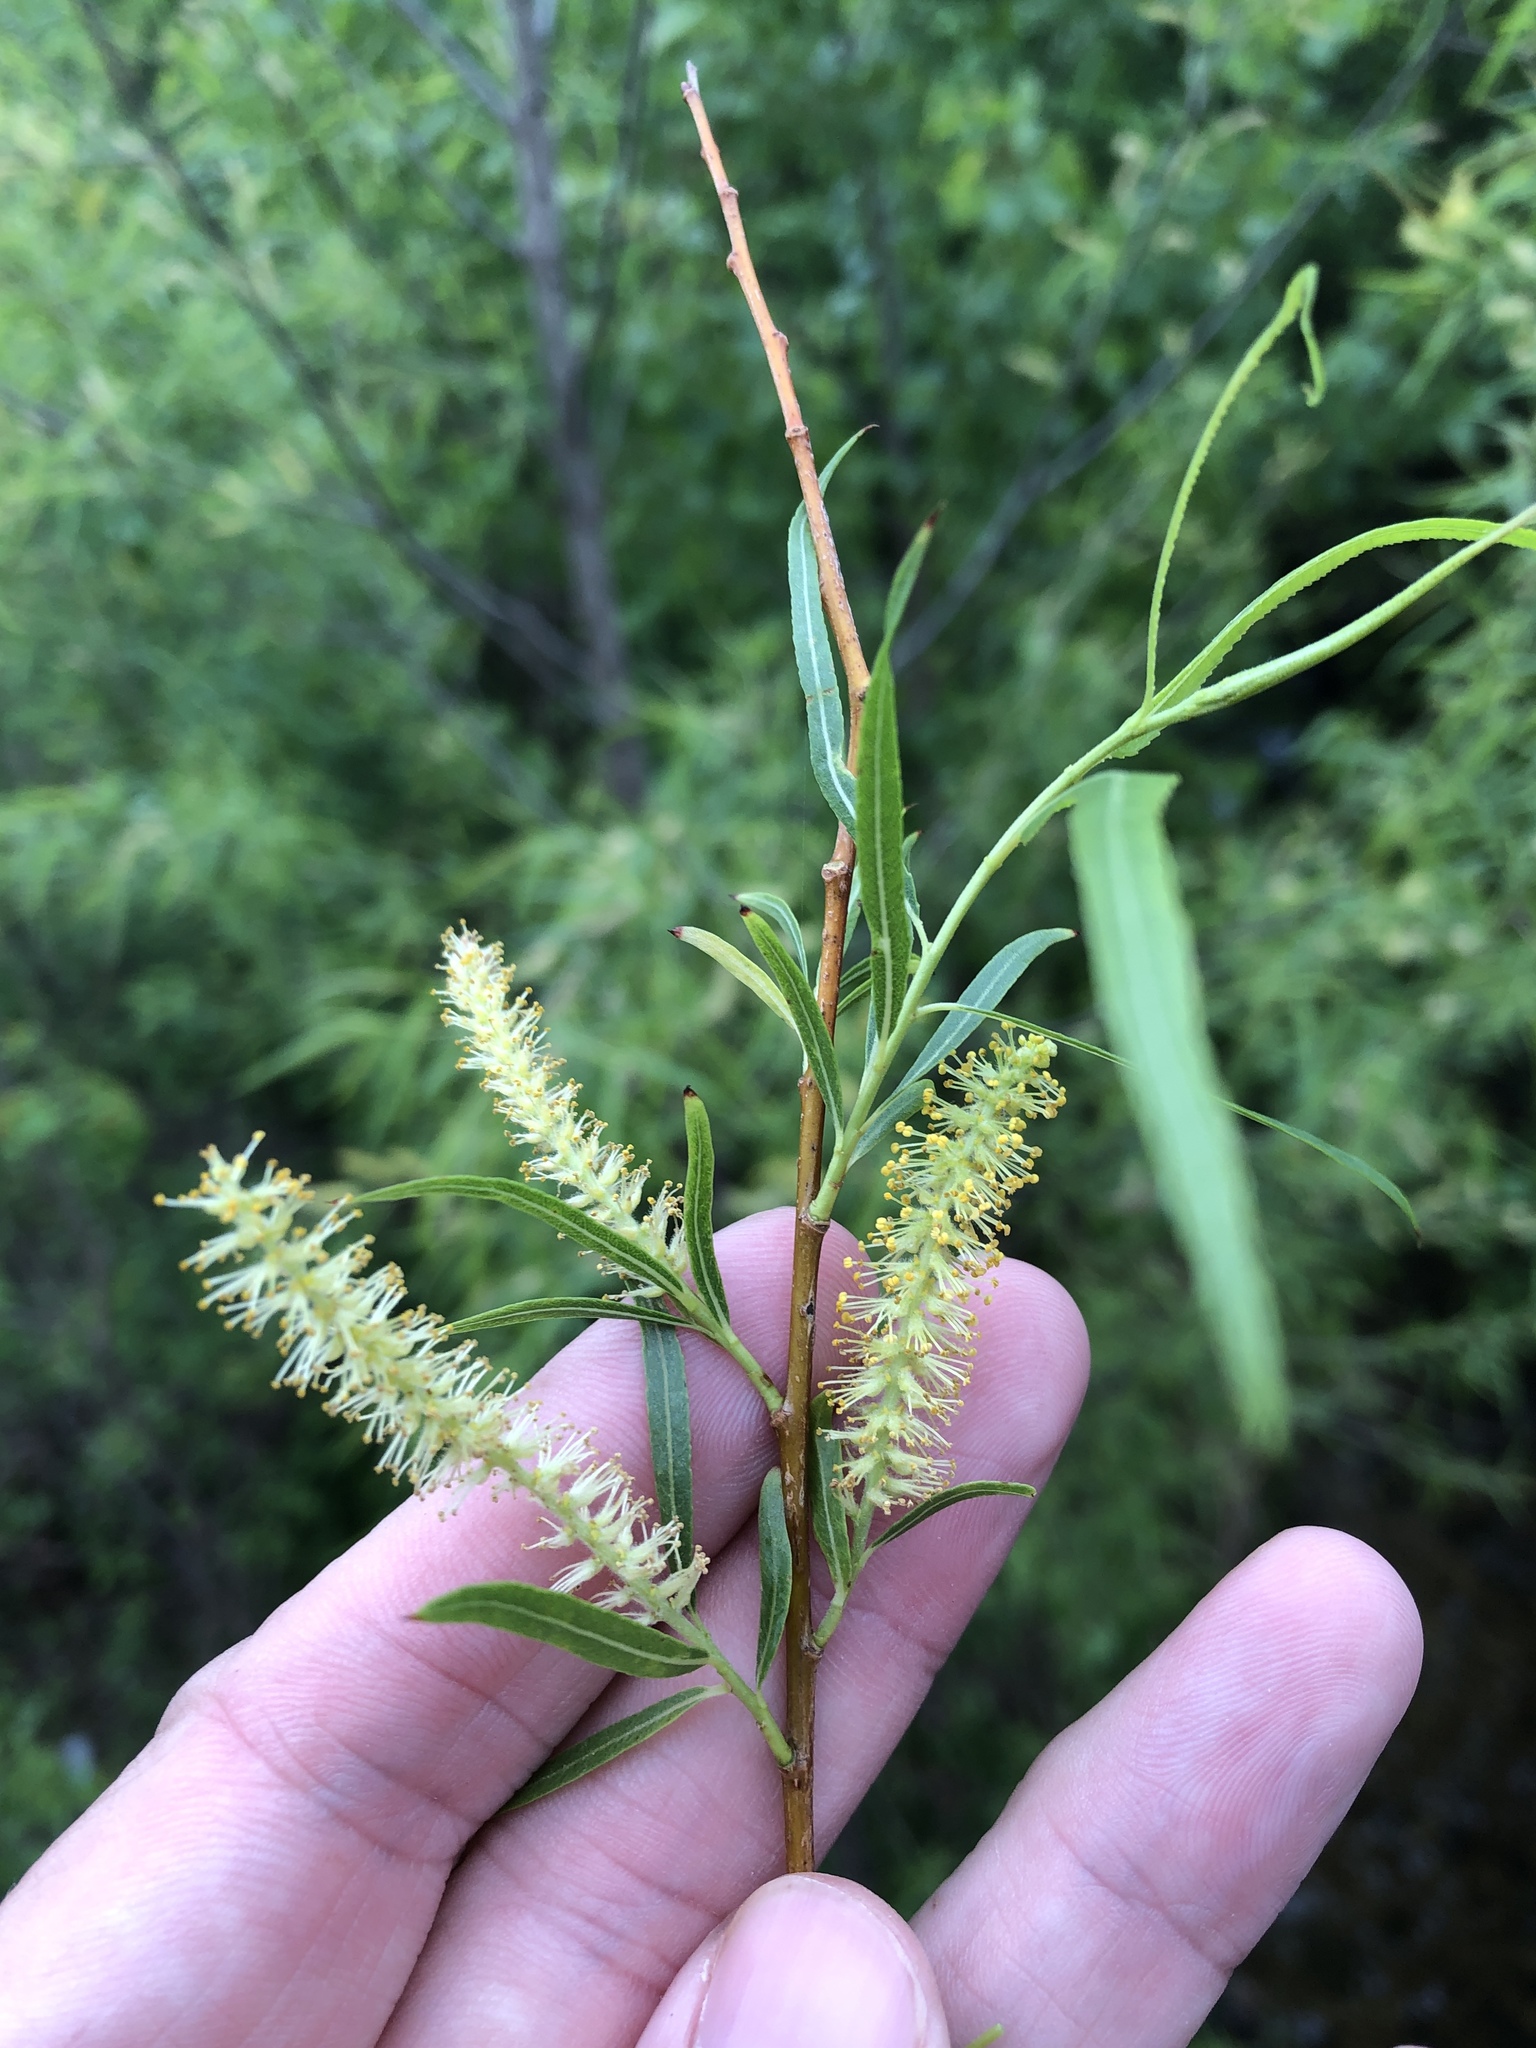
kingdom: Plantae
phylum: Tracheophyta
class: Magnoliopsida
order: Malpighiales
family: Salicaceae
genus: Salix
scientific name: Salix nigra
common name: Black willow
